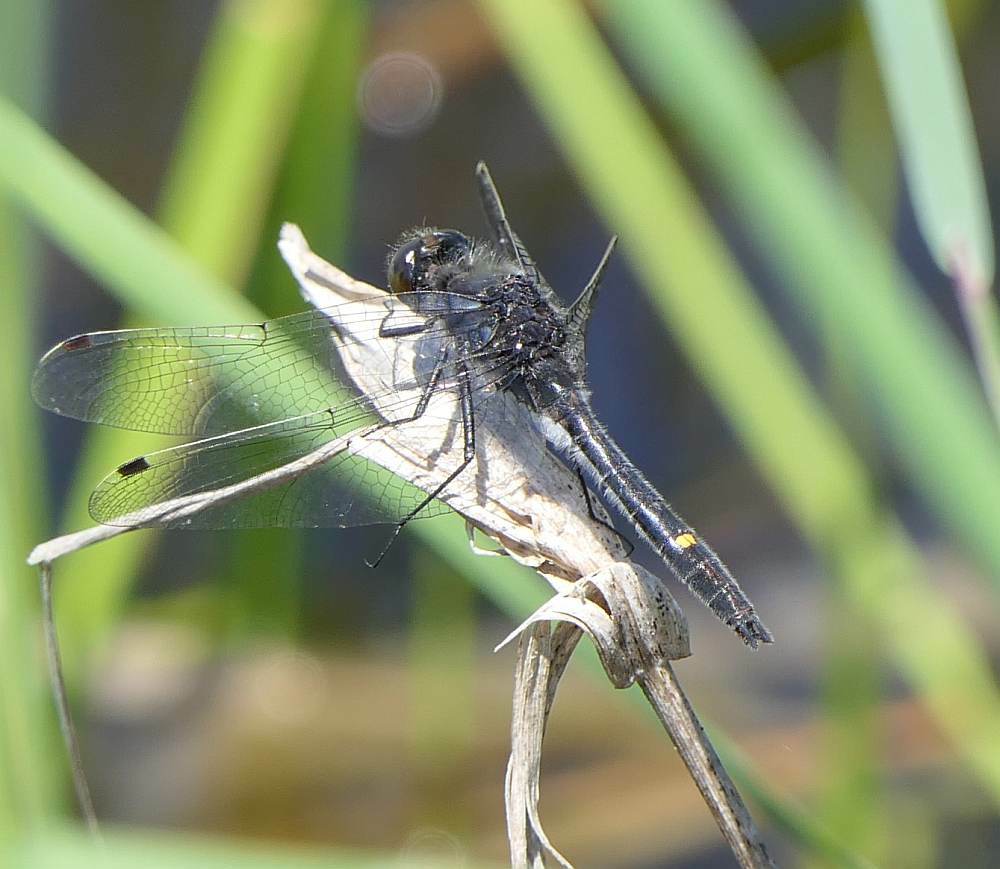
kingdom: Animalia
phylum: Arthropoda
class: Insecta
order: Odonata
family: Libellulidae
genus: Leucorrhinia
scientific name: Leucorrhinia intacta
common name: Dot-tailed whiteface
